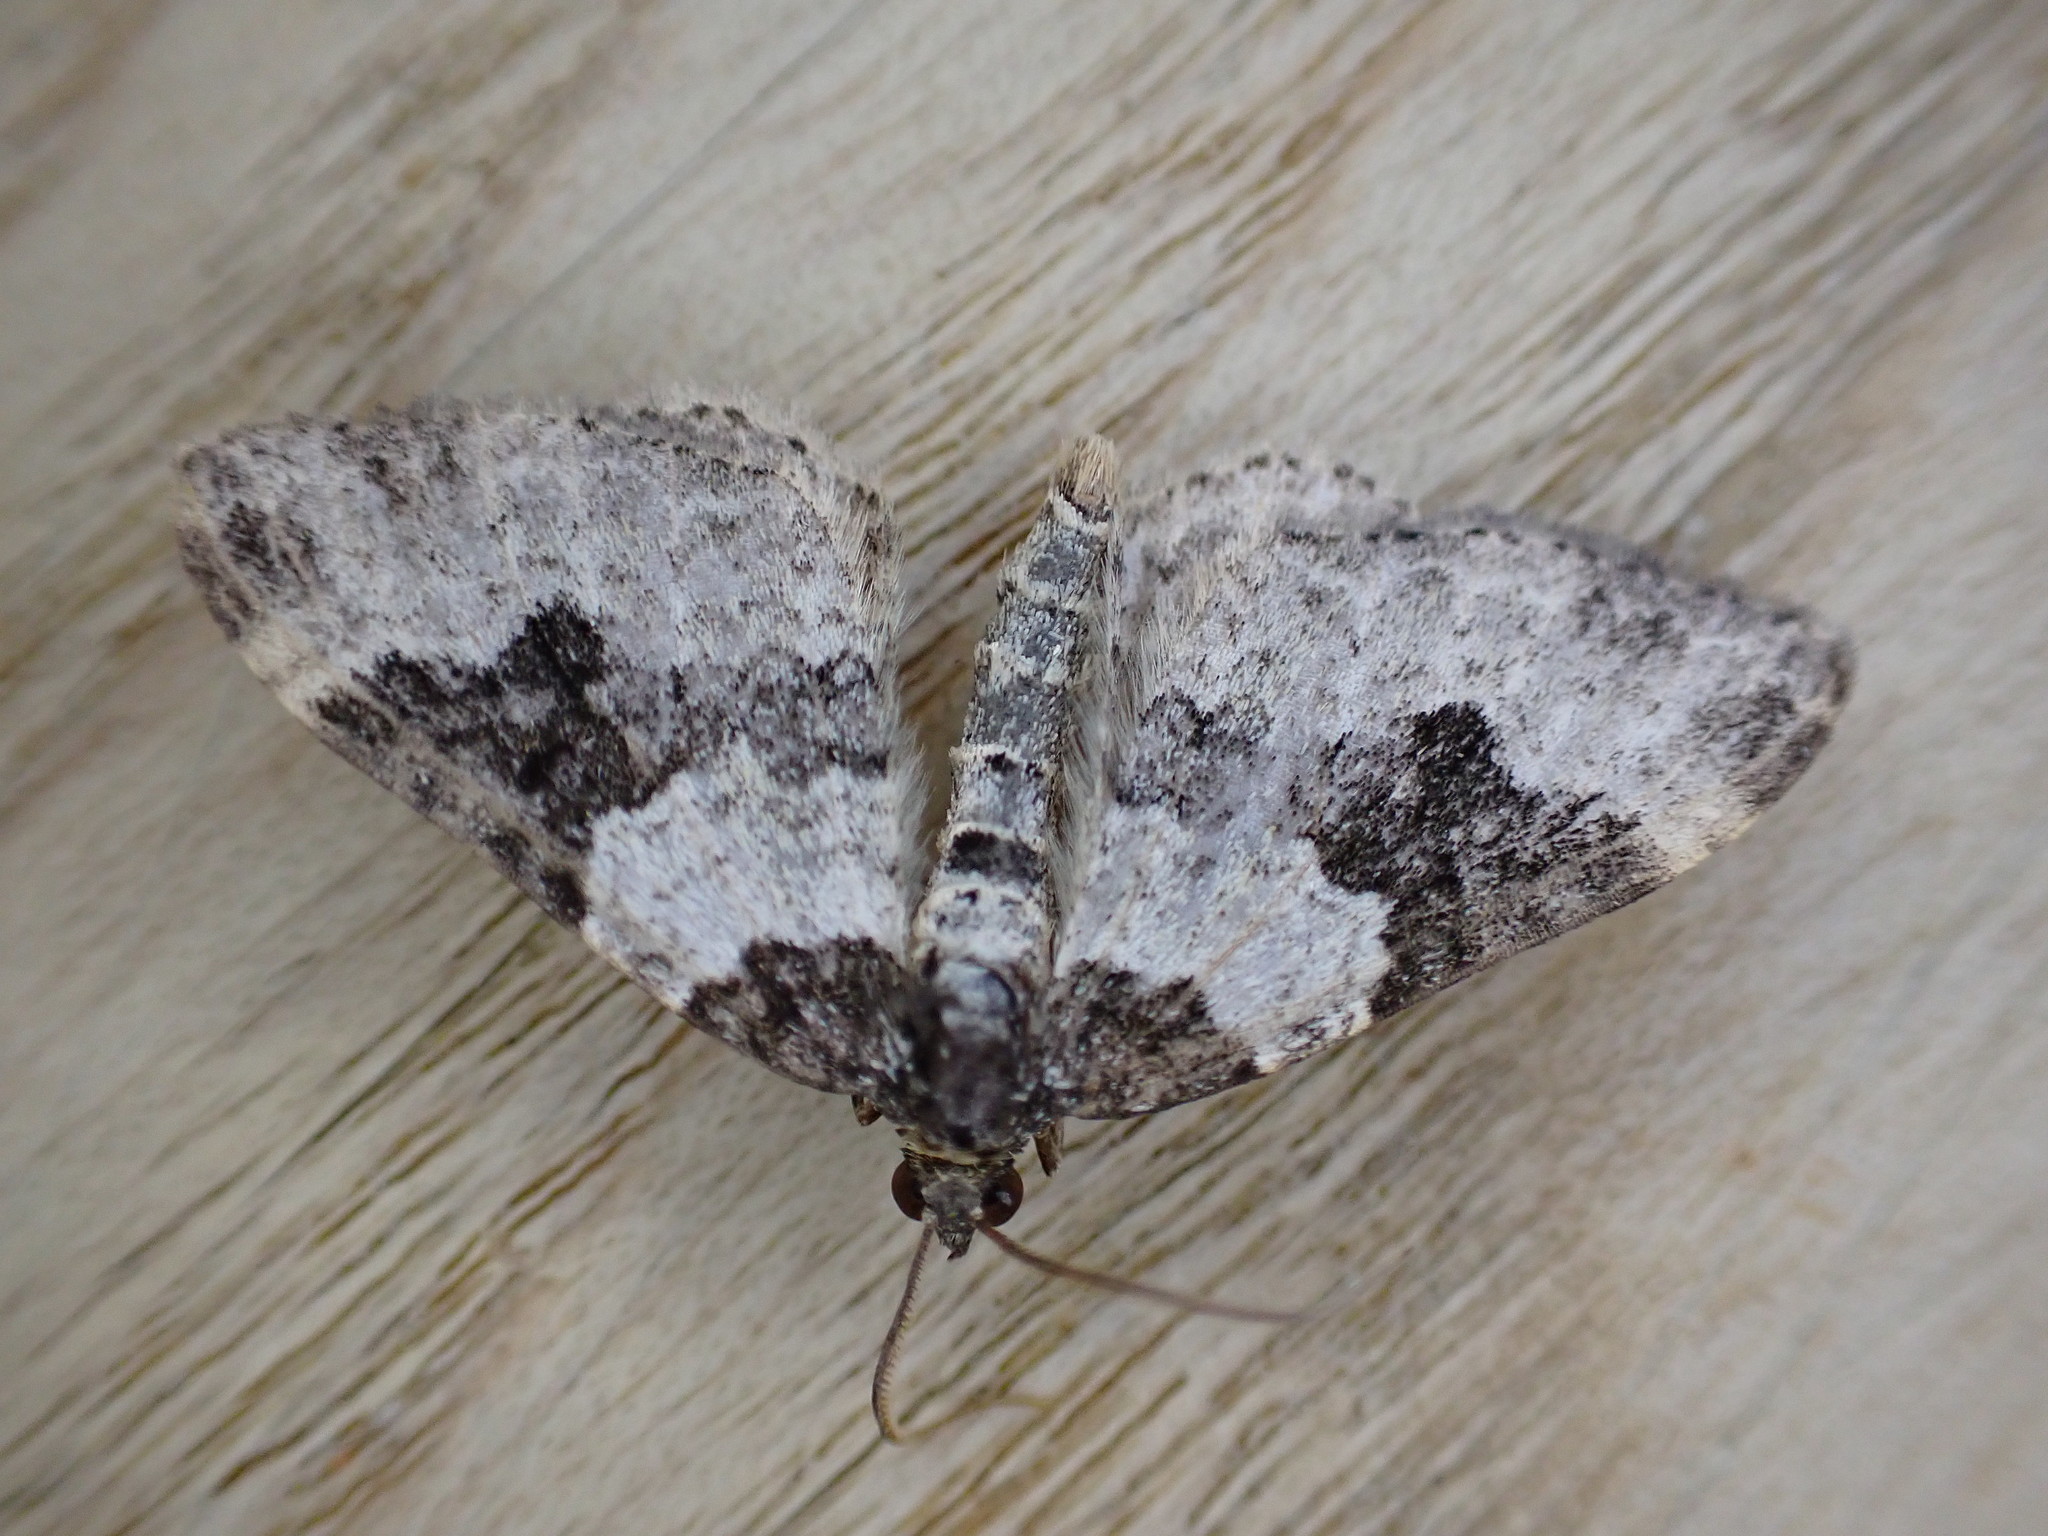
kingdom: Animalia
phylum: Arthropoda
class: Insecta
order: Lepidoptera
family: Geometridae
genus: Xanthorhoe
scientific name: Xanthorhoe fluctuata
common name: Garden carpet
